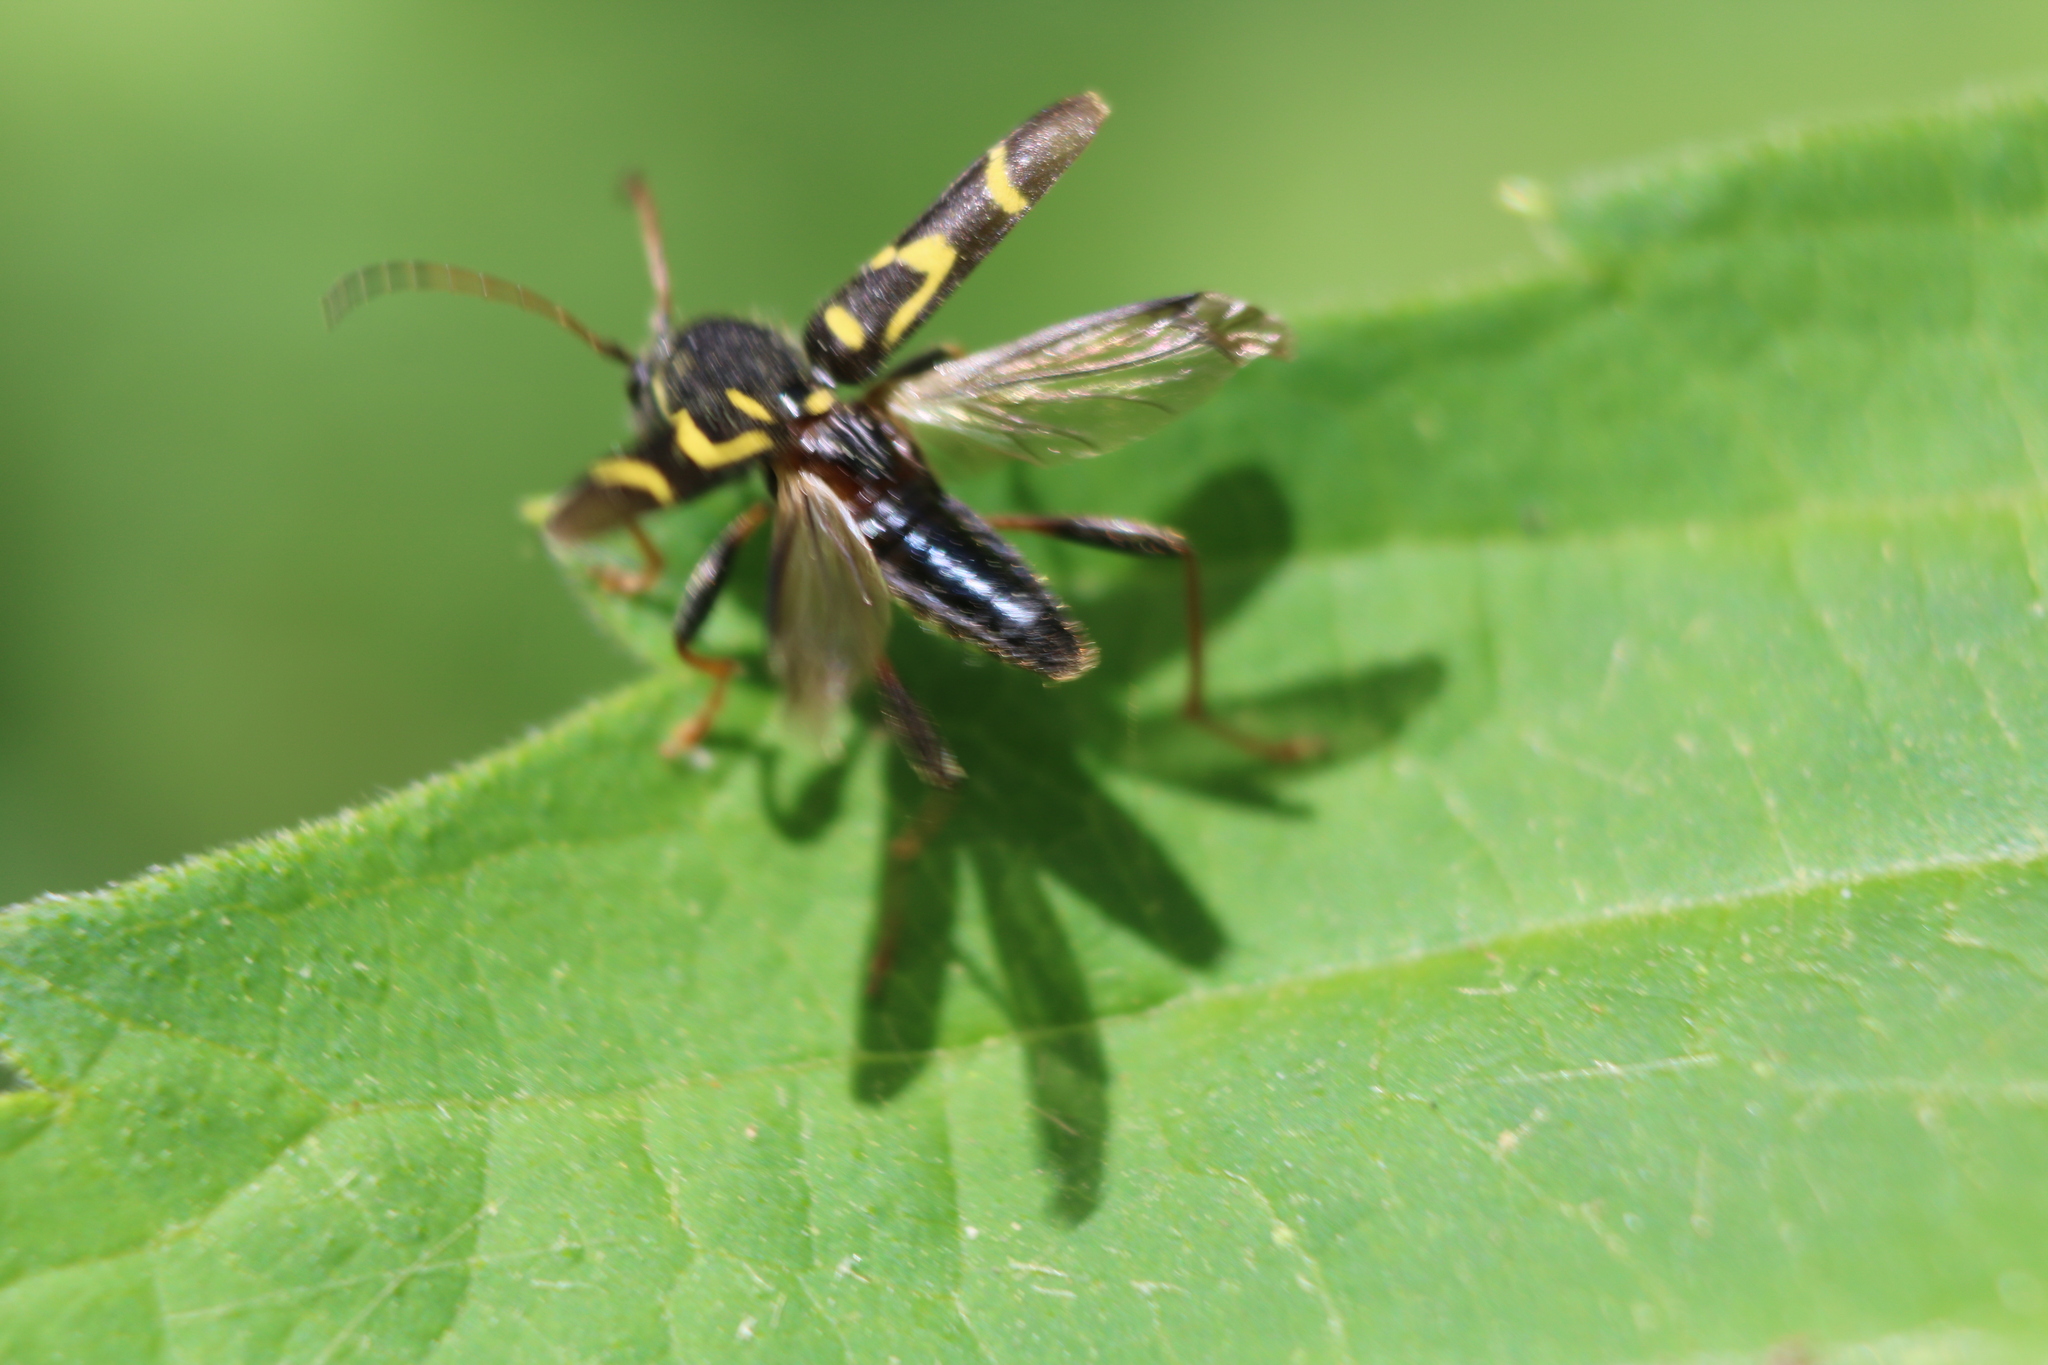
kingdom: Animalia
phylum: Arthropoda
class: Insecta
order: Coleoptera
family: Cerambycidae
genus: Clytus
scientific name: Clytus ruricola
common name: Round-necked longhorn beetle
